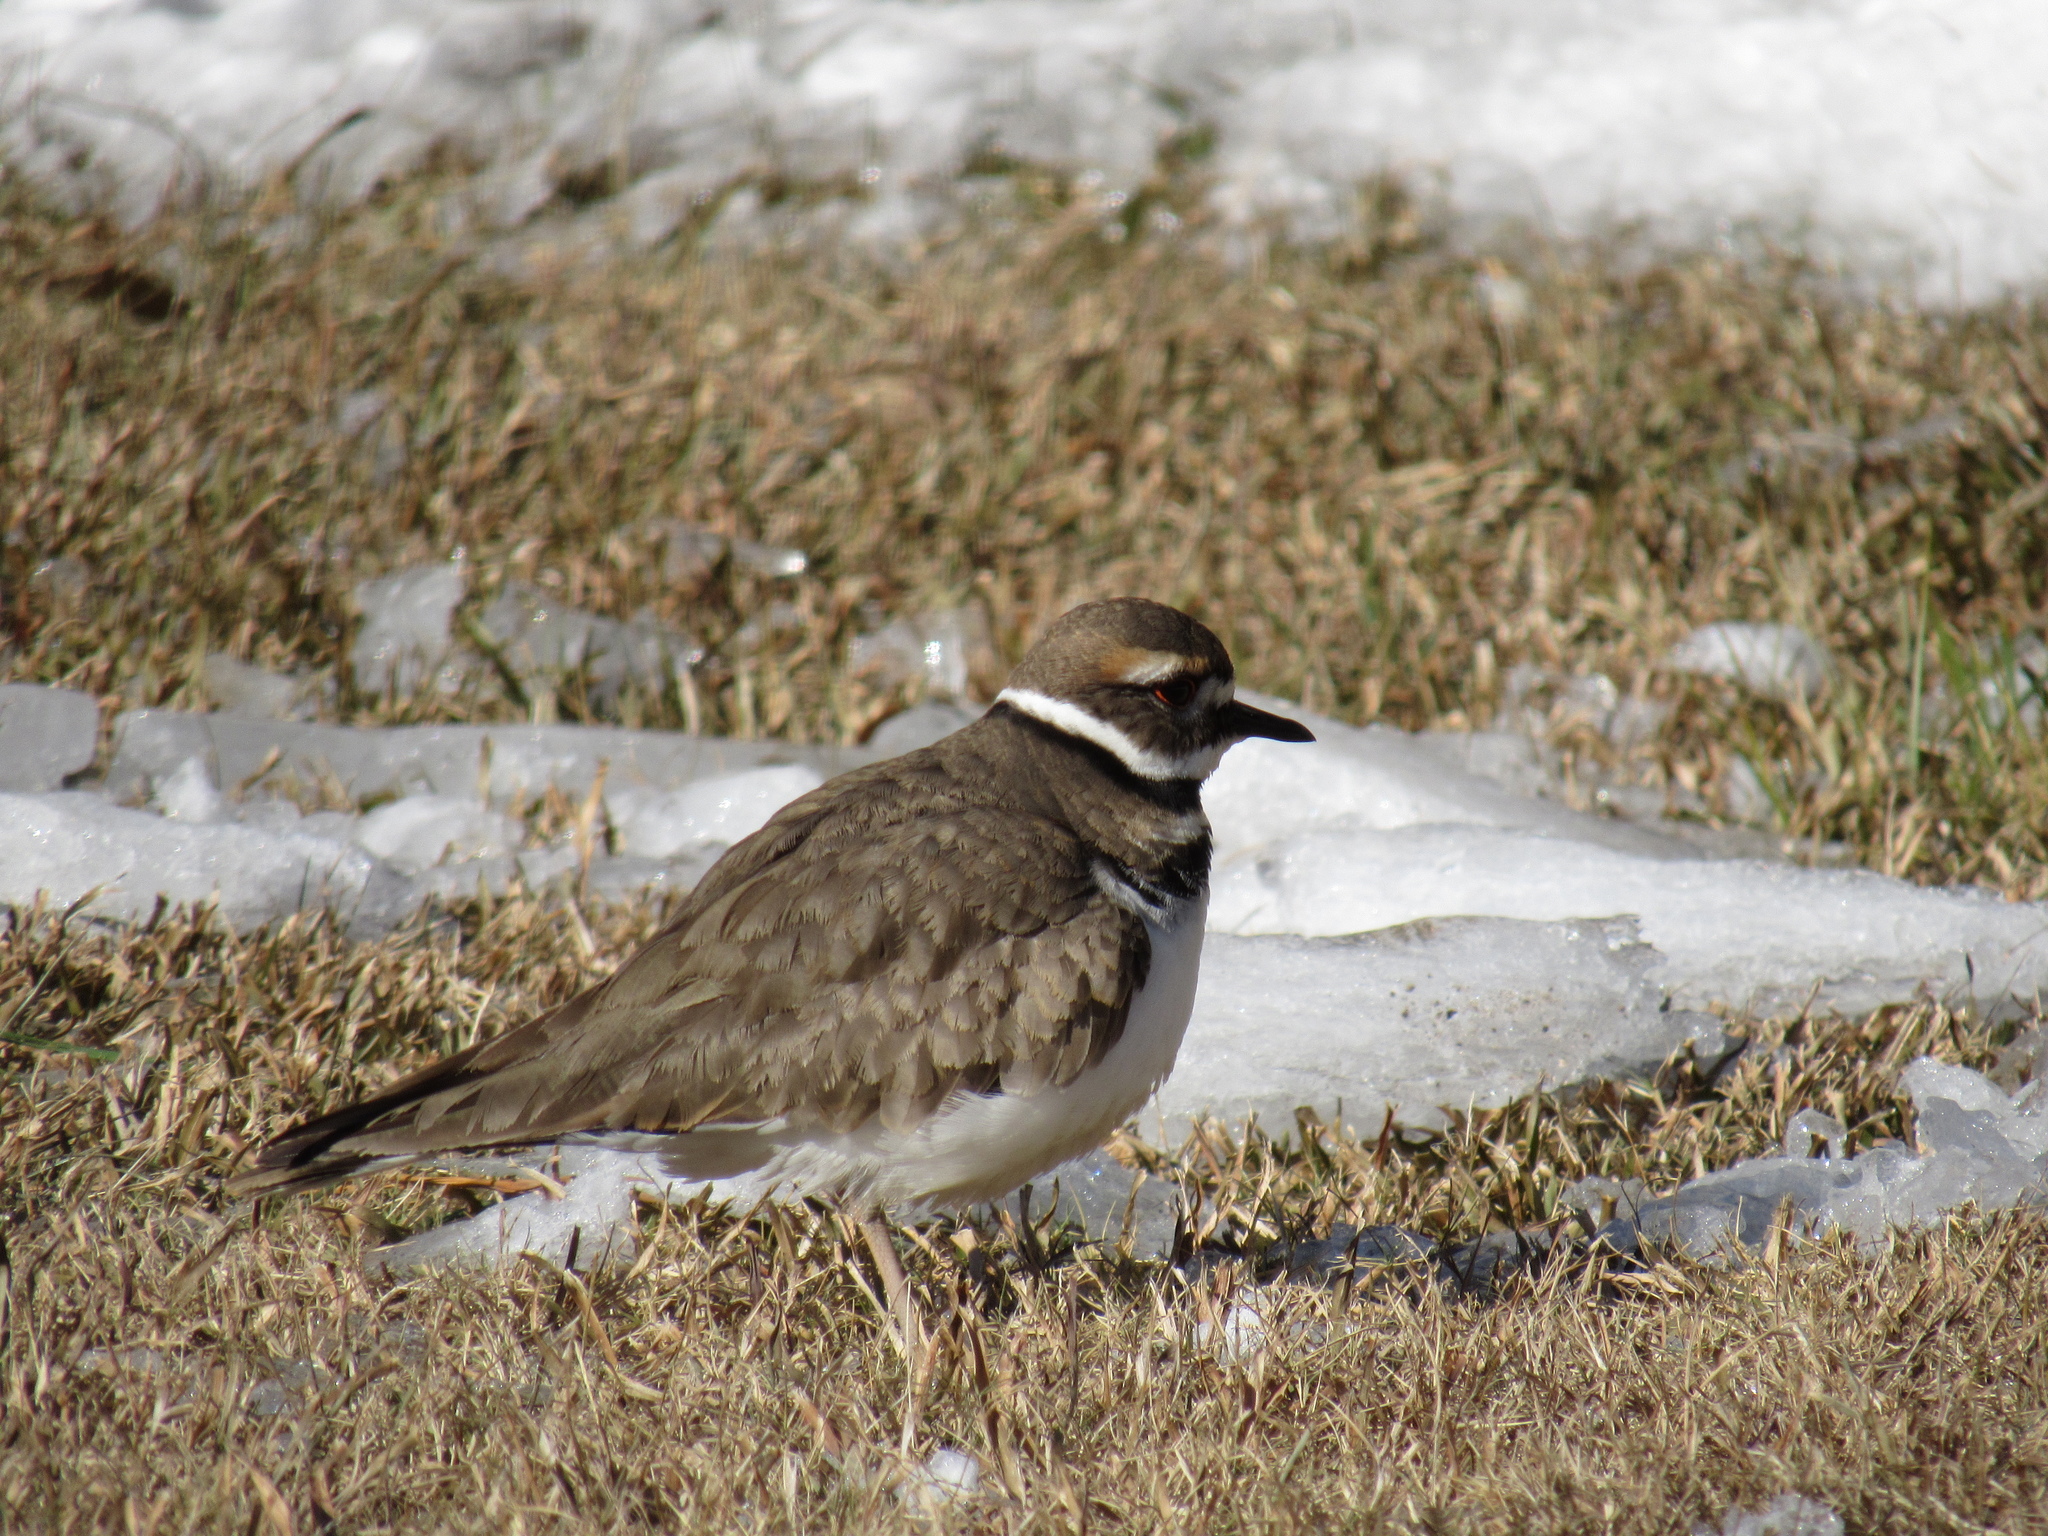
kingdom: Animalia
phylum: Chordata
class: Aves
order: Charadriiformes
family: Charadriidae
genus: Charadrius
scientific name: Charadrius vociferus
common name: Killdeer
